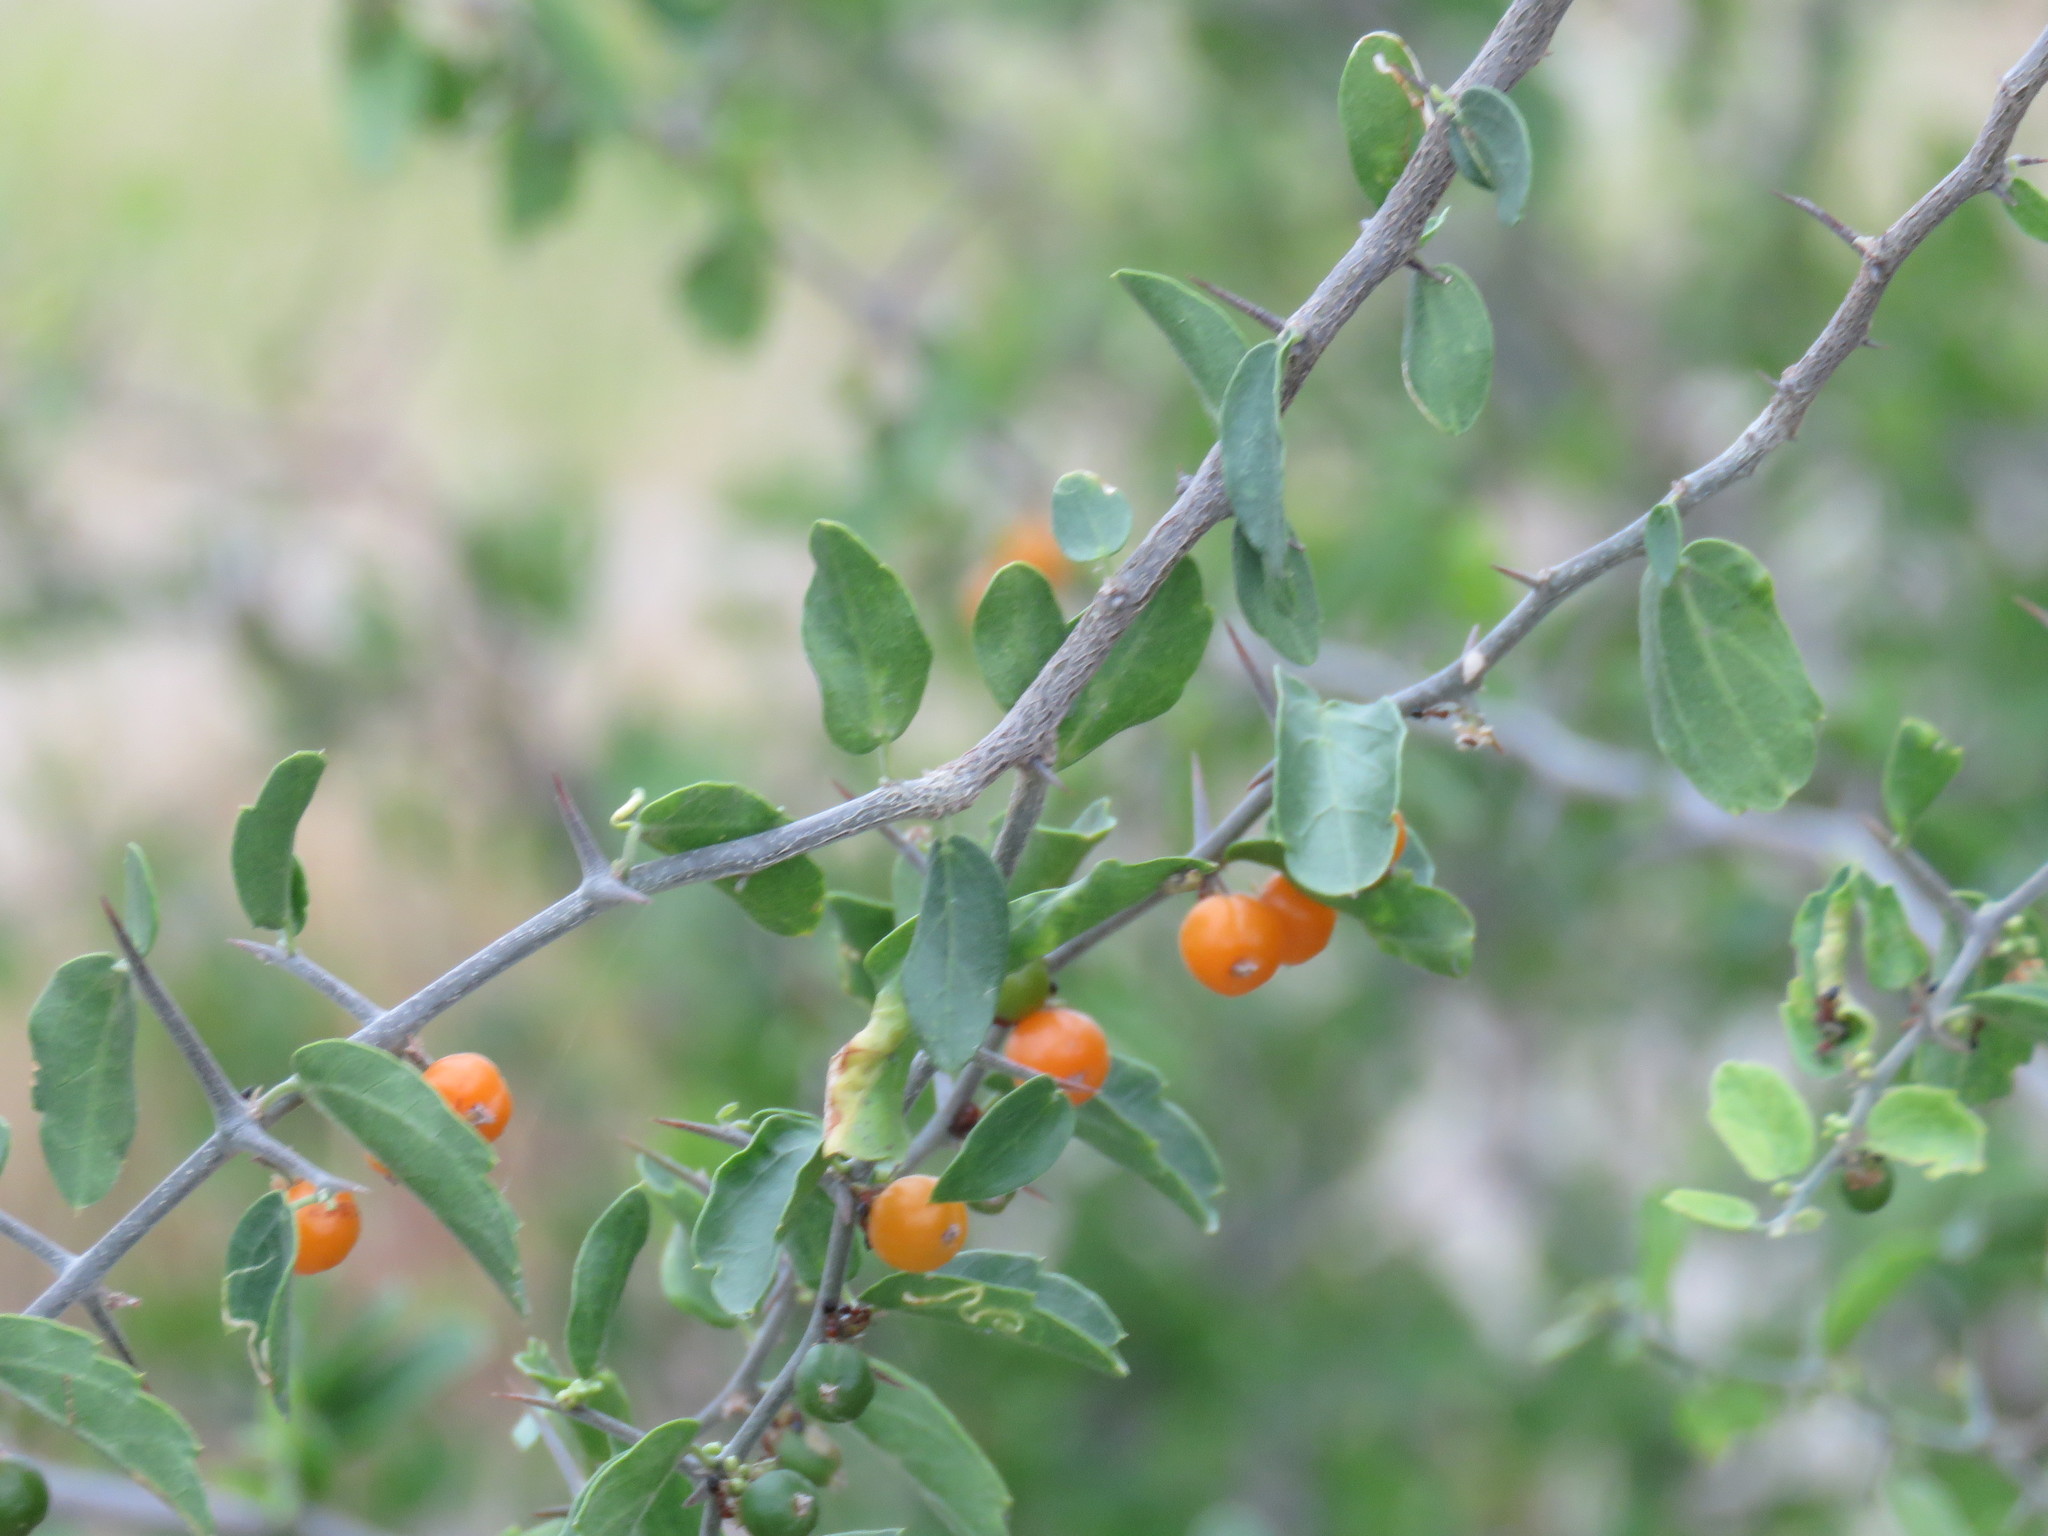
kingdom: Plantae
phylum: Tracheophyta
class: Magnoliopsida
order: Rosales
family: Cannabaceae
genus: Celtis
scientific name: Celtis pallida
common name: Desert hackberry
